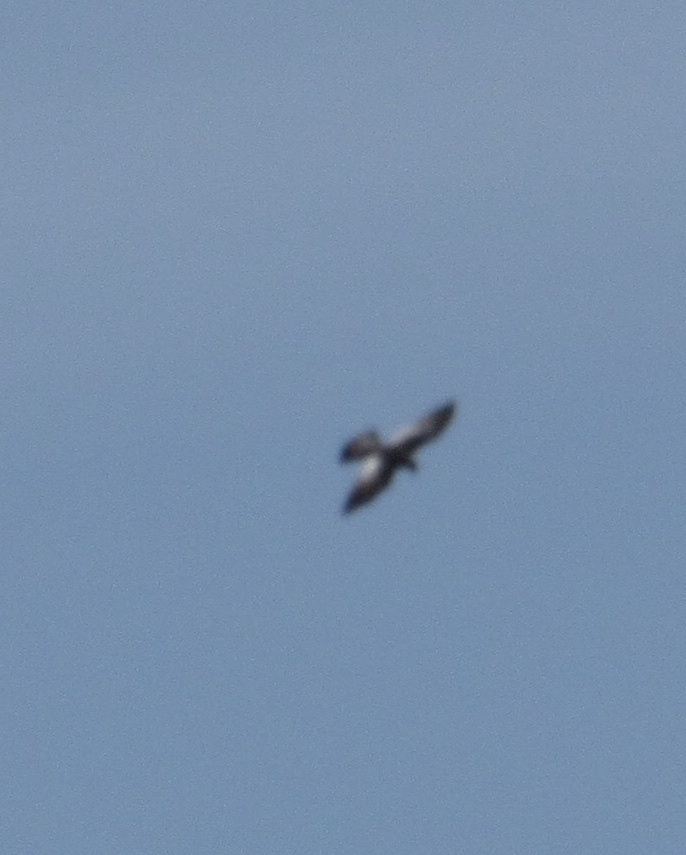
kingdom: Animalia
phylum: Chordata
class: Aves
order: Accipitriformes
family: Accipitridae
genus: Ictinia
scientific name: Ictinia mississippiensis
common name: Mississippi kite
